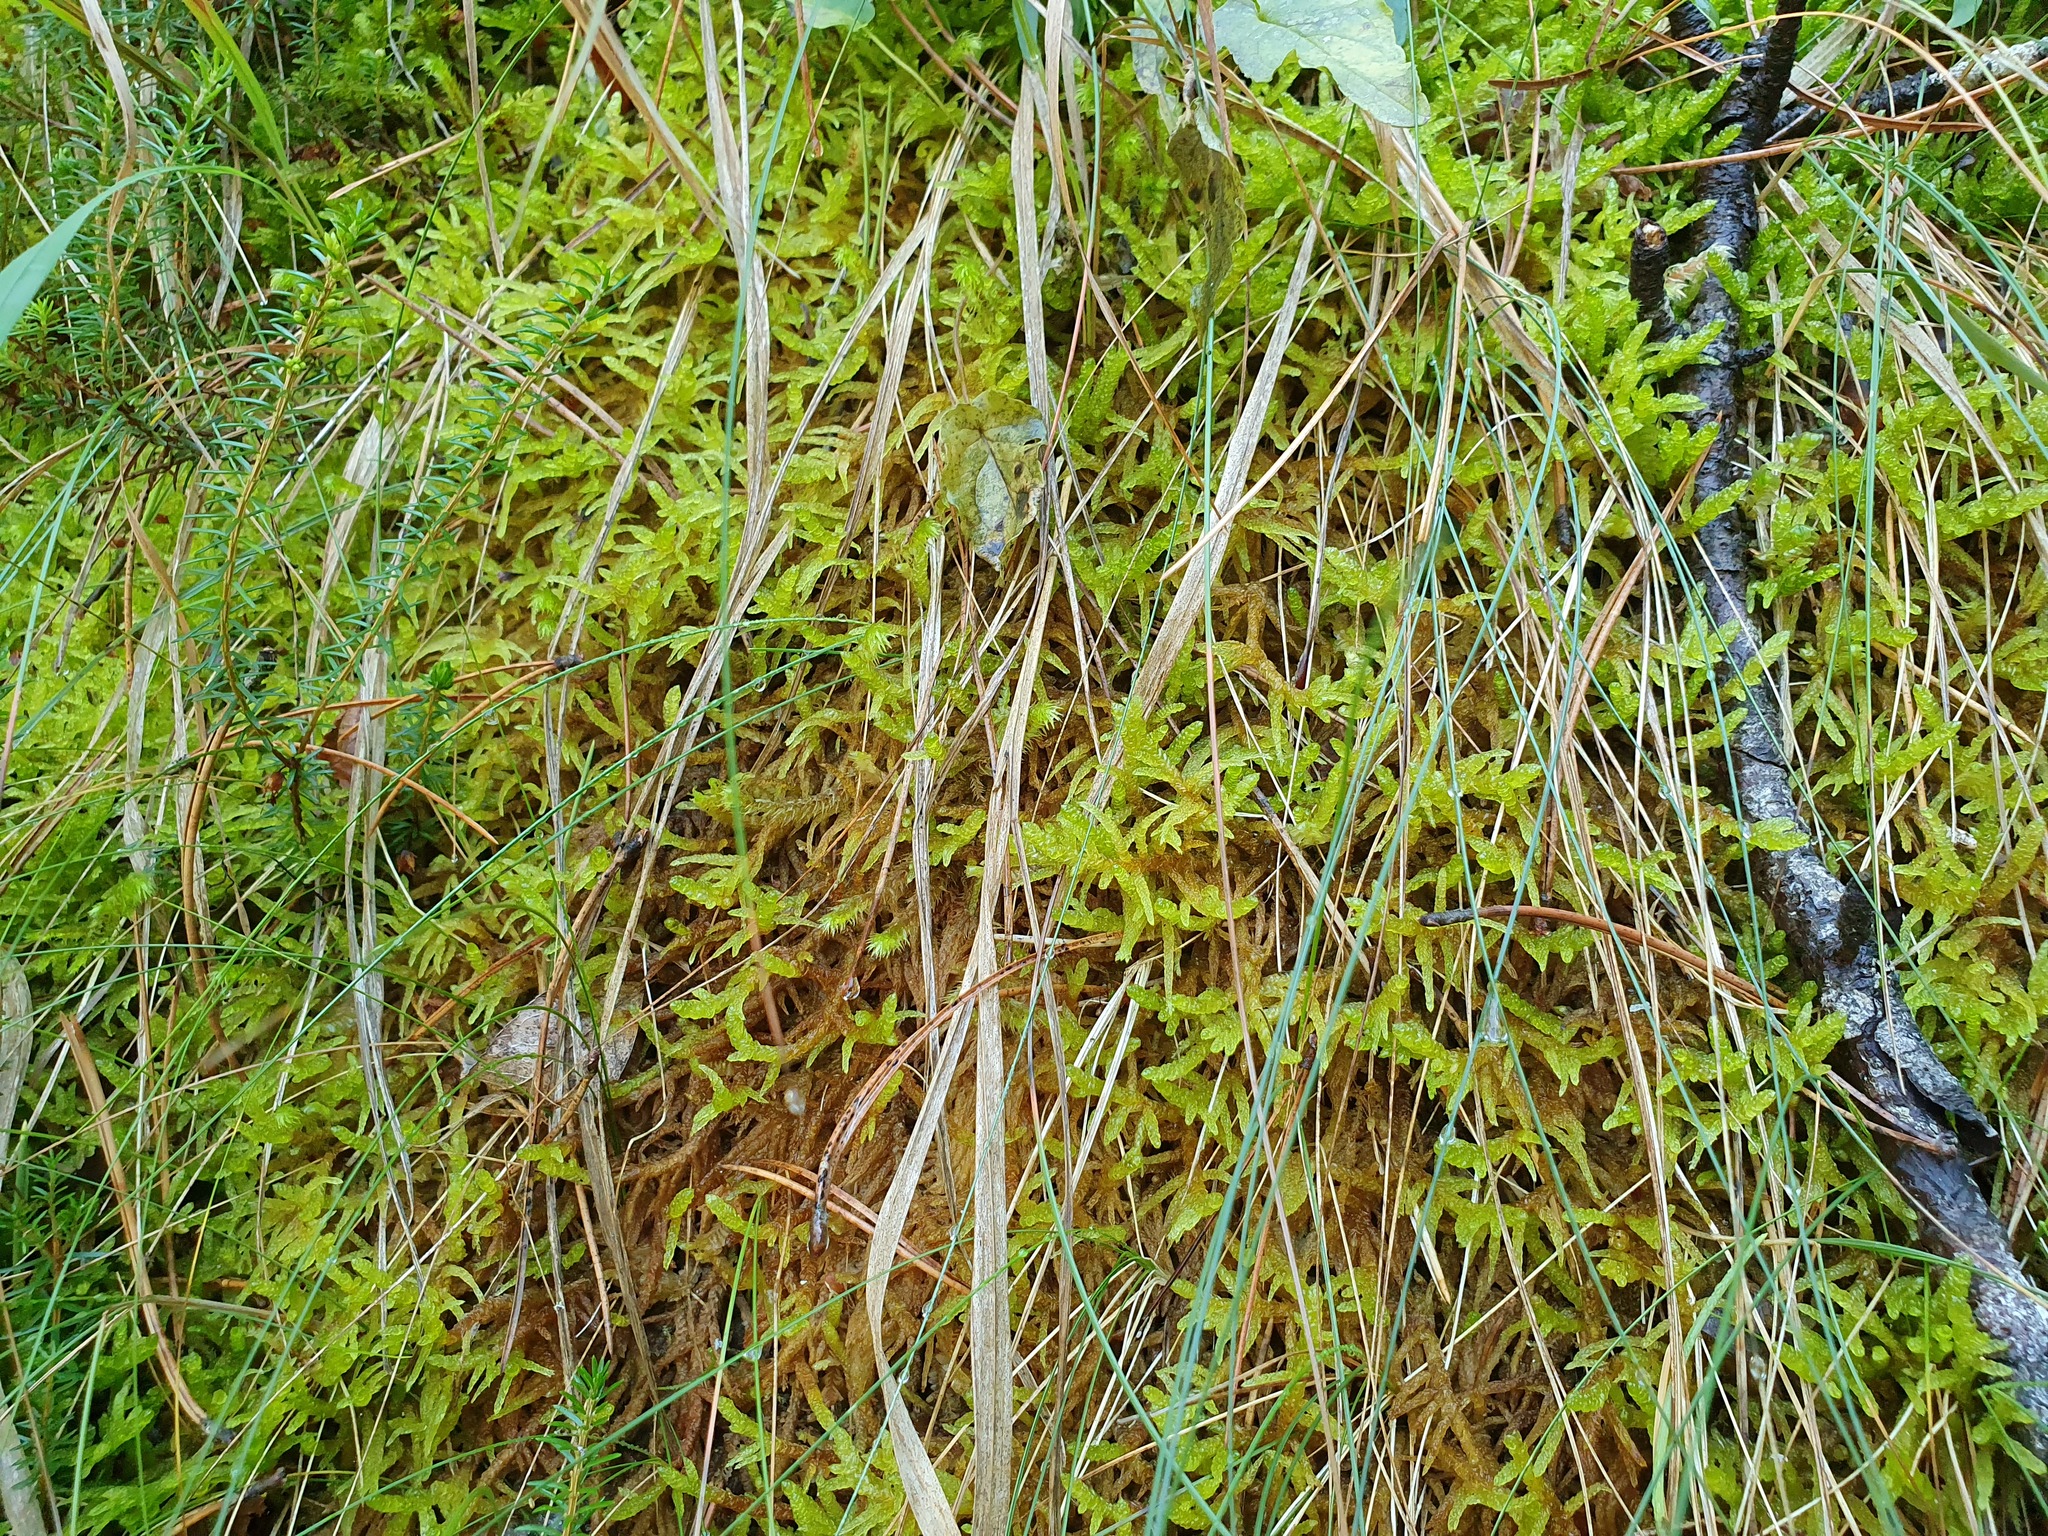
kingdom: Plantae
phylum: Bryophyta
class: Bryopsida
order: Hypnales
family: Brachytheciaceae
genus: Pseudoscleropodium
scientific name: Pseudoscleropodium purum
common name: Neat feather-moss
